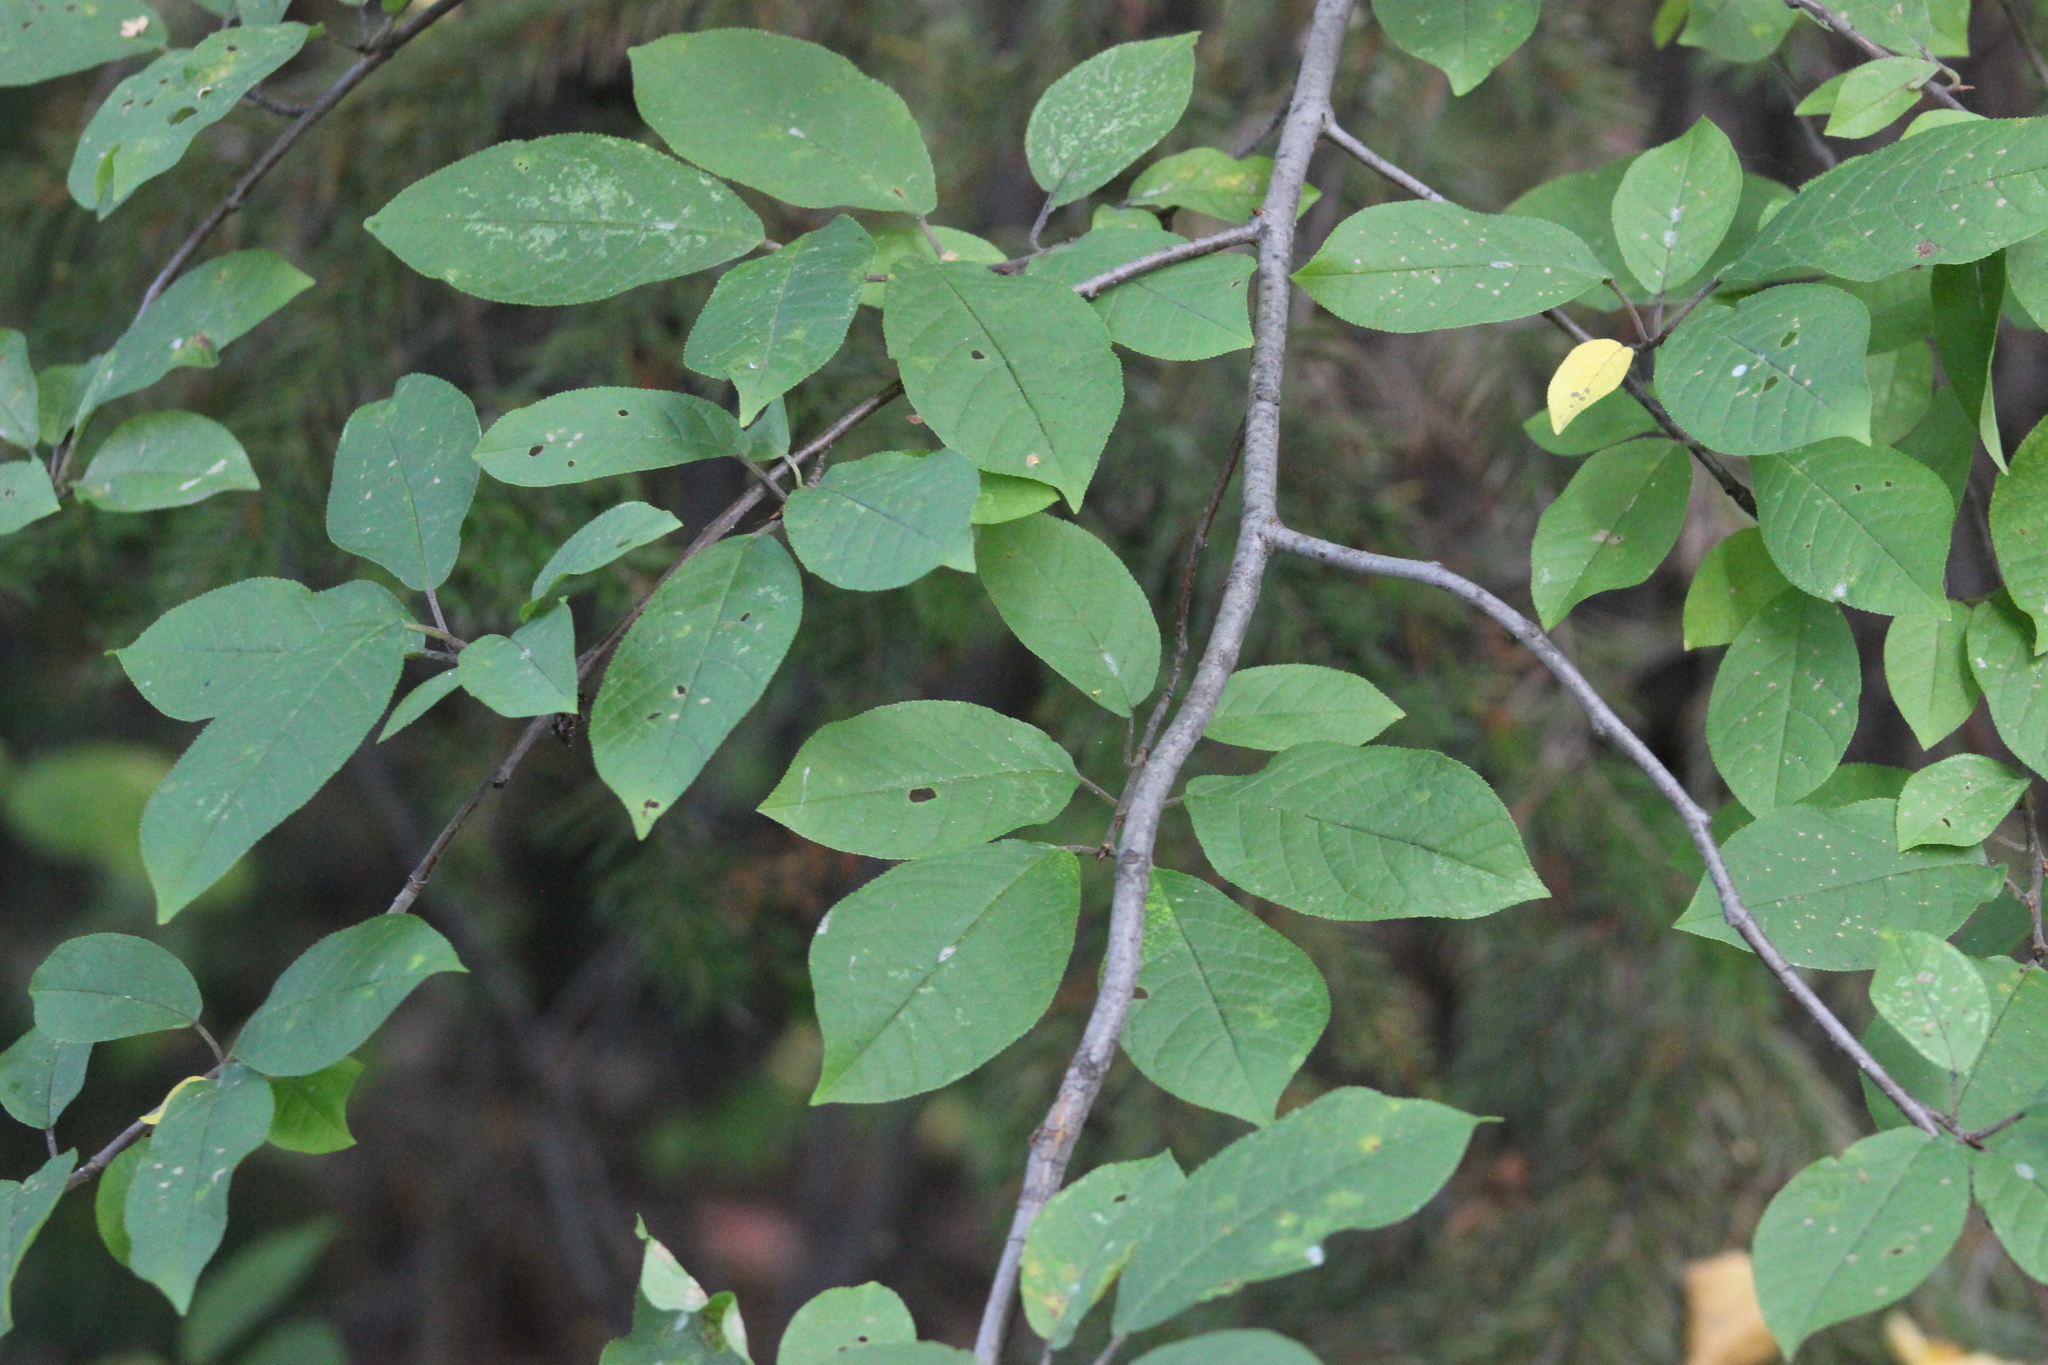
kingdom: Plantae
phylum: Tracheophyta
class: Magnoliopsida
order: Rosales
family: Rosaceae
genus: Prunus
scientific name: Prunus padus
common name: Bird cherry
